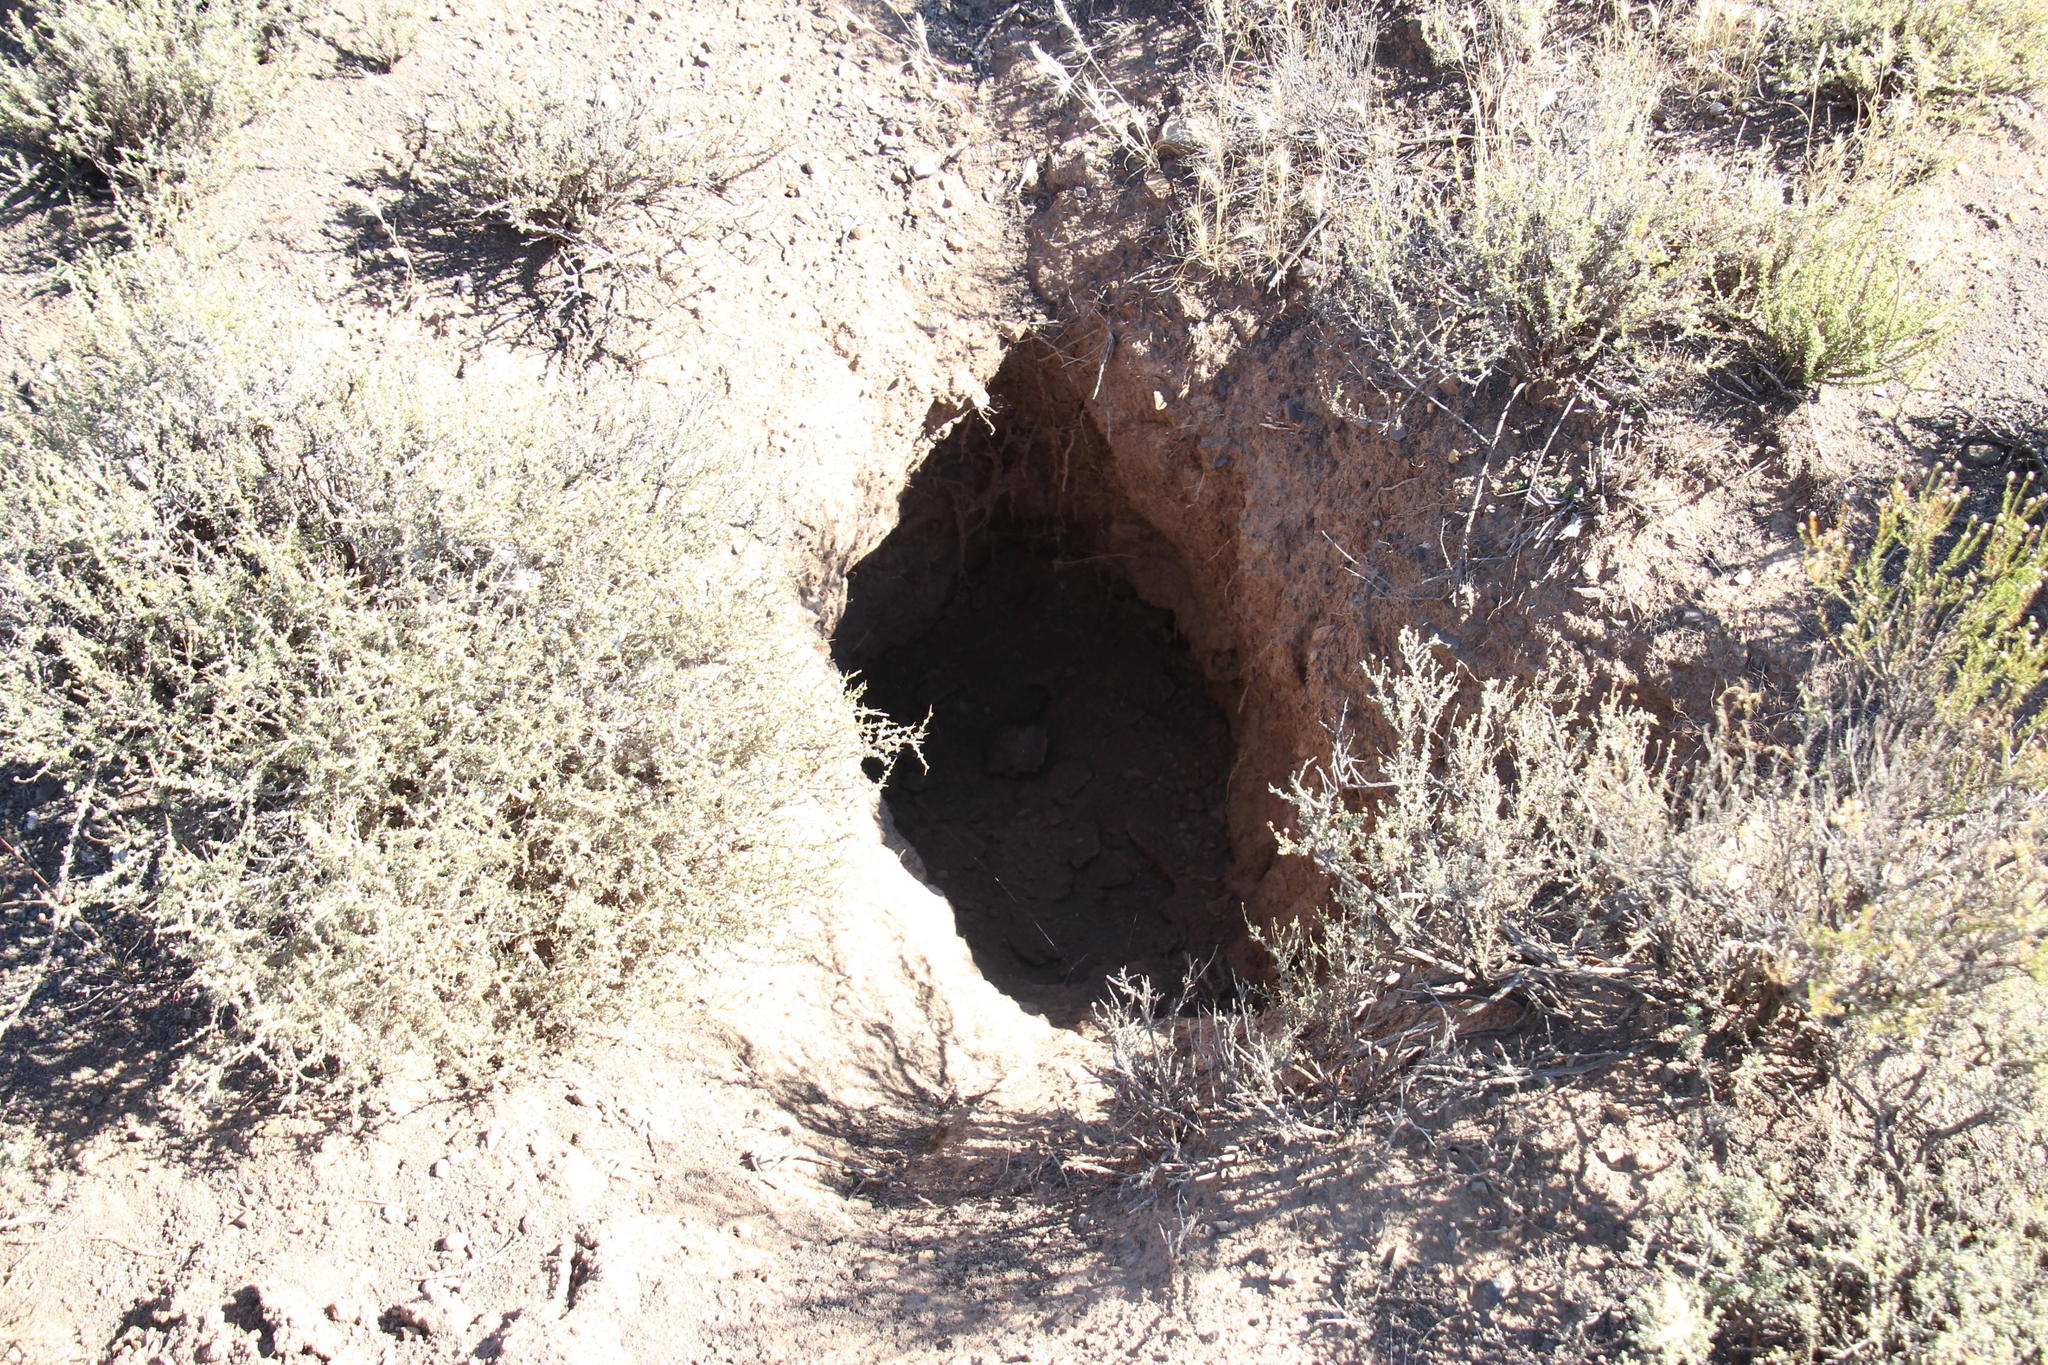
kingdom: Animalia
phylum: Chordata
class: Mammalia
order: Tubulidentata
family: Orycteropodidae
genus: Orycteropus
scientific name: Orycteropus afer
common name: Aardvark
